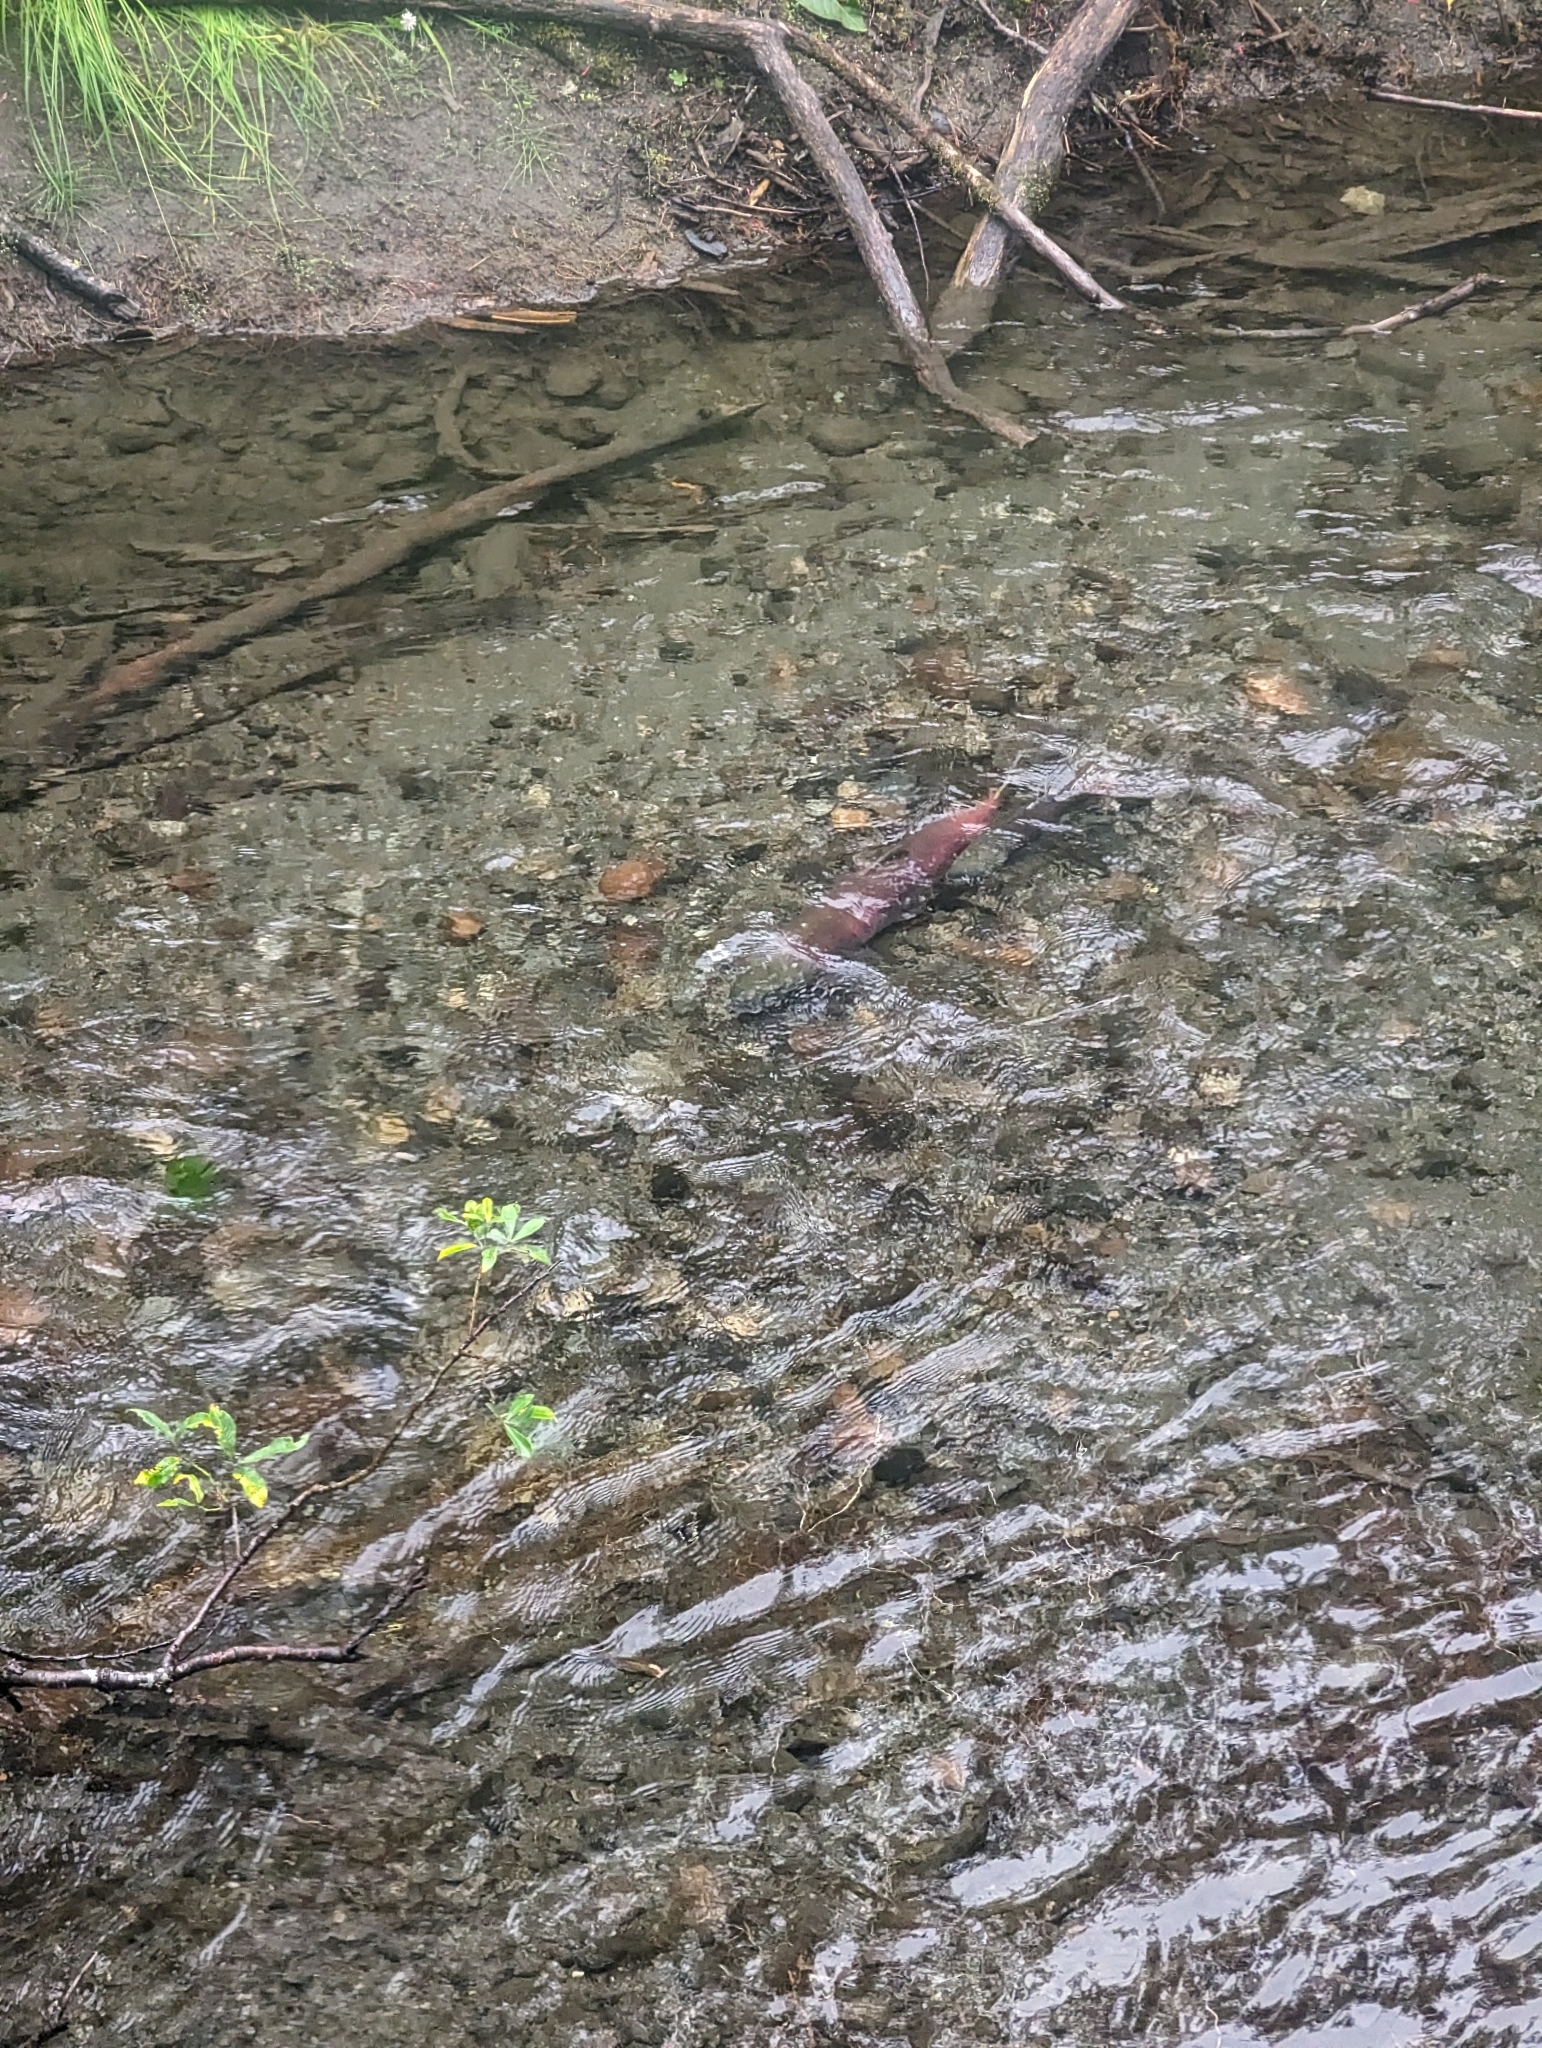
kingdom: Animalia
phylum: Chordata
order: Salmoniformes
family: Salmonidae
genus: Oncorhynchus
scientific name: Oncorhynchus nerka
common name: Sockeye salmon
